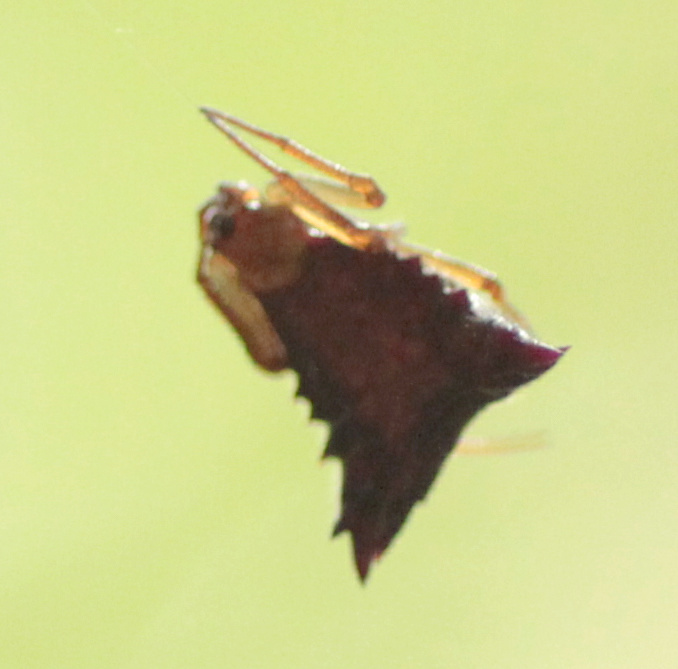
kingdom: Animalia
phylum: Arthropoda
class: Arachnida
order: Araneae
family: Araneidae
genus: Micrathena
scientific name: Micrathena triangularis
